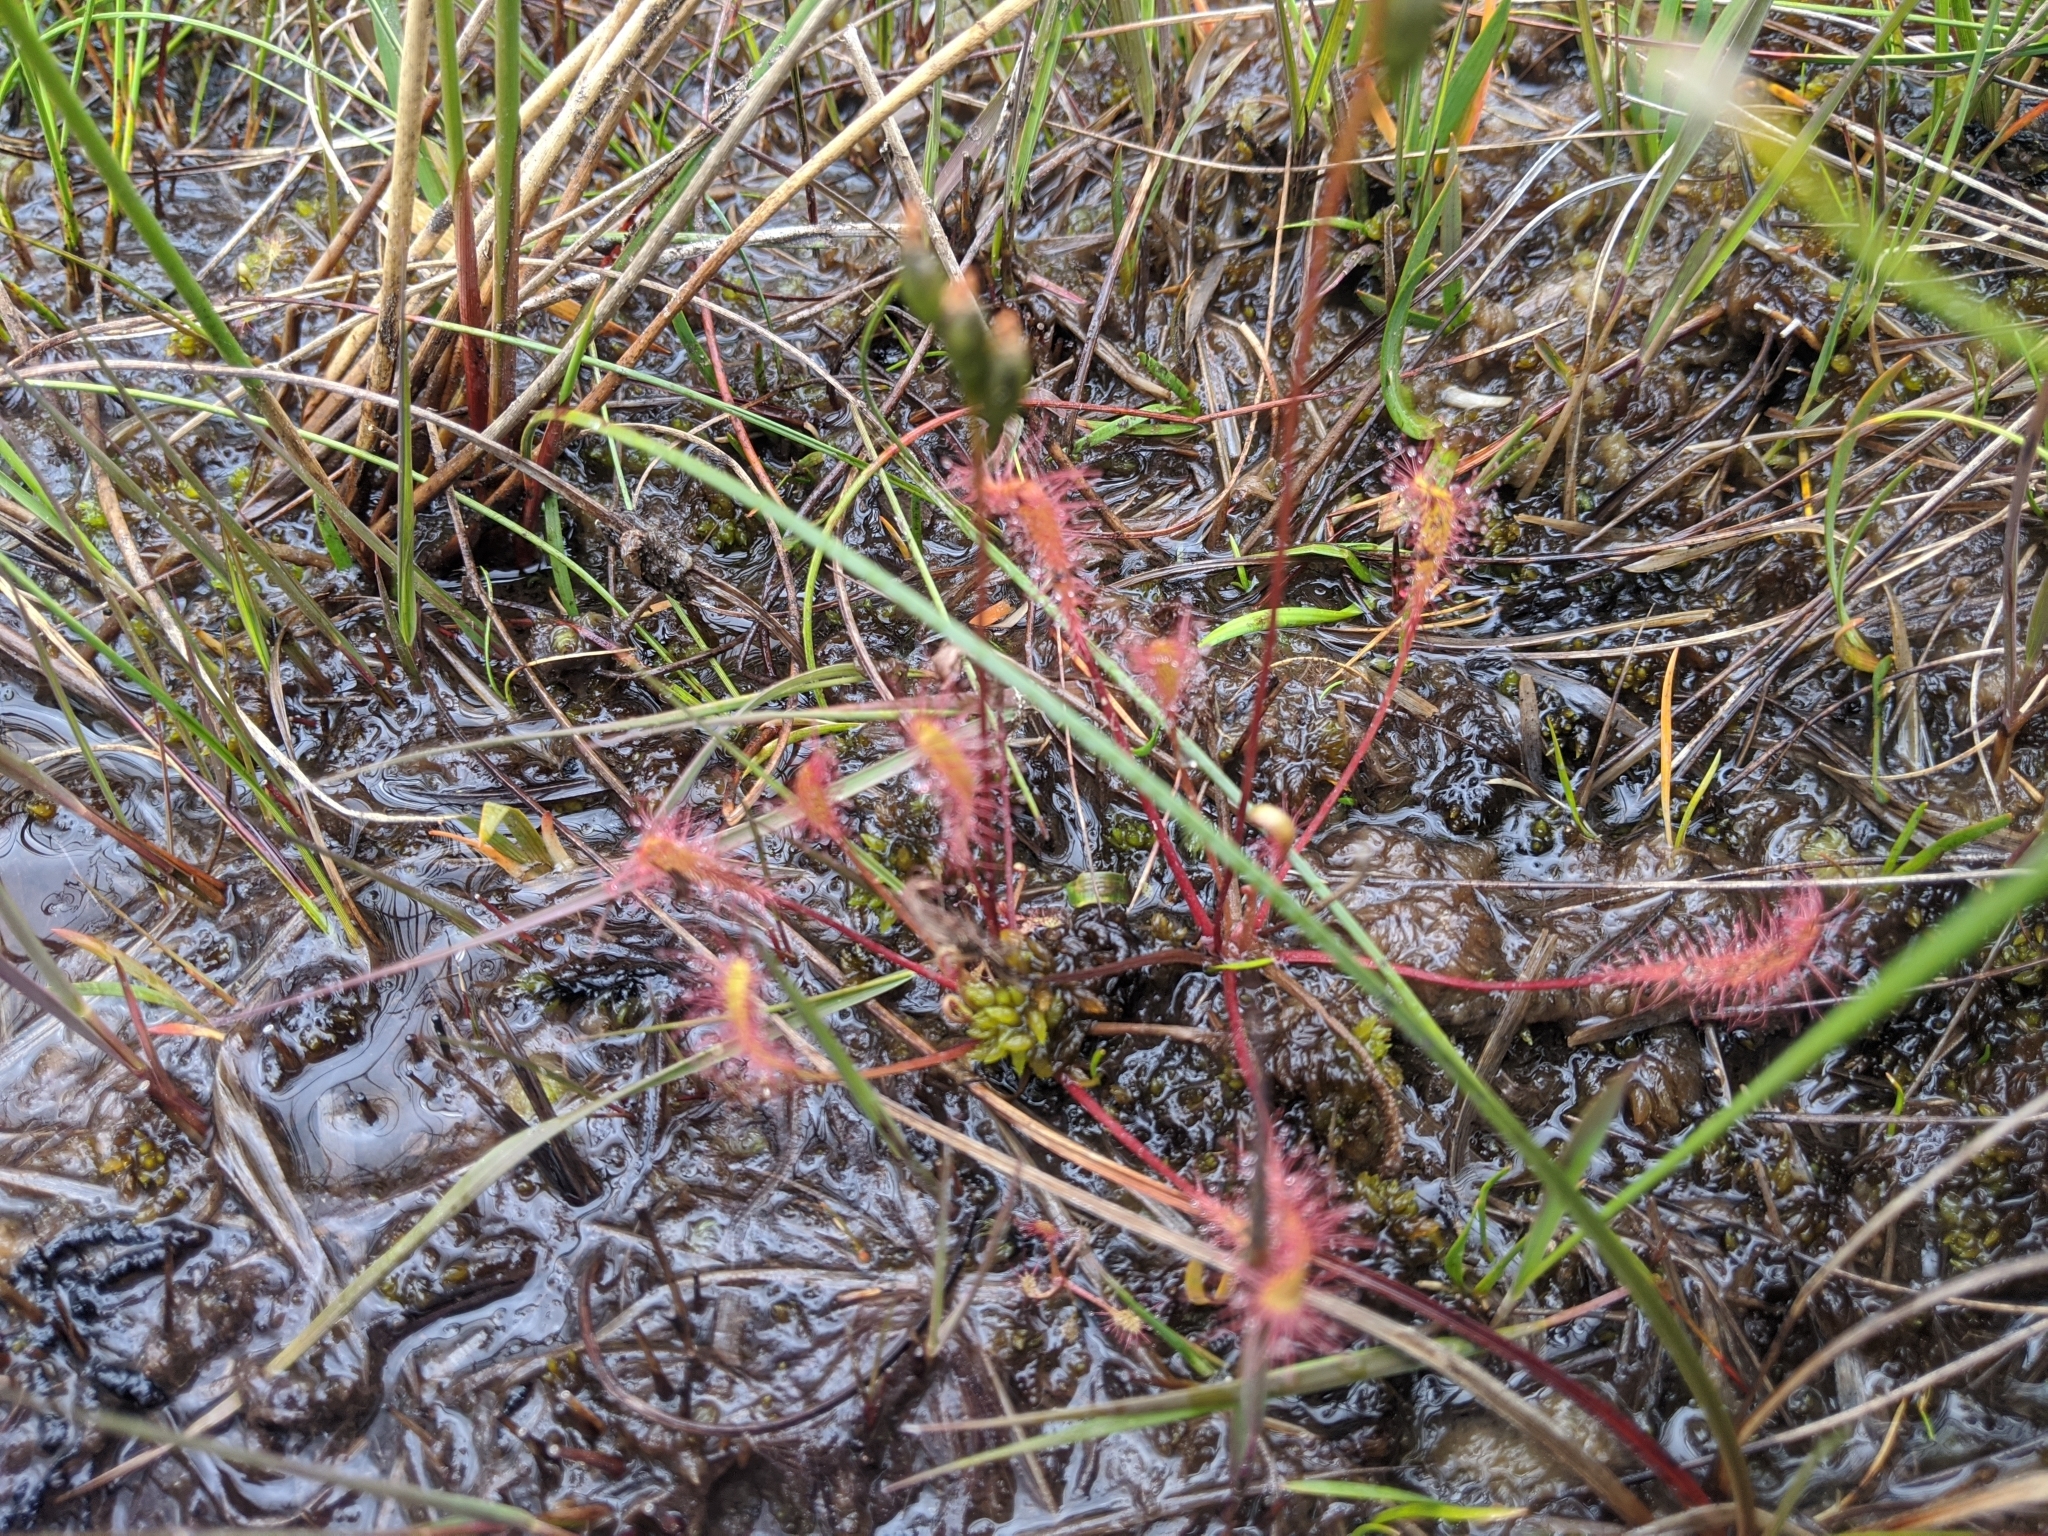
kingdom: Plantae
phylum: Tracheophyta
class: Magnoliopsida
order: Caryophyllales
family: Droseraceae
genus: Drosera
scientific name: Drosera anglica
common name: Great sundew
